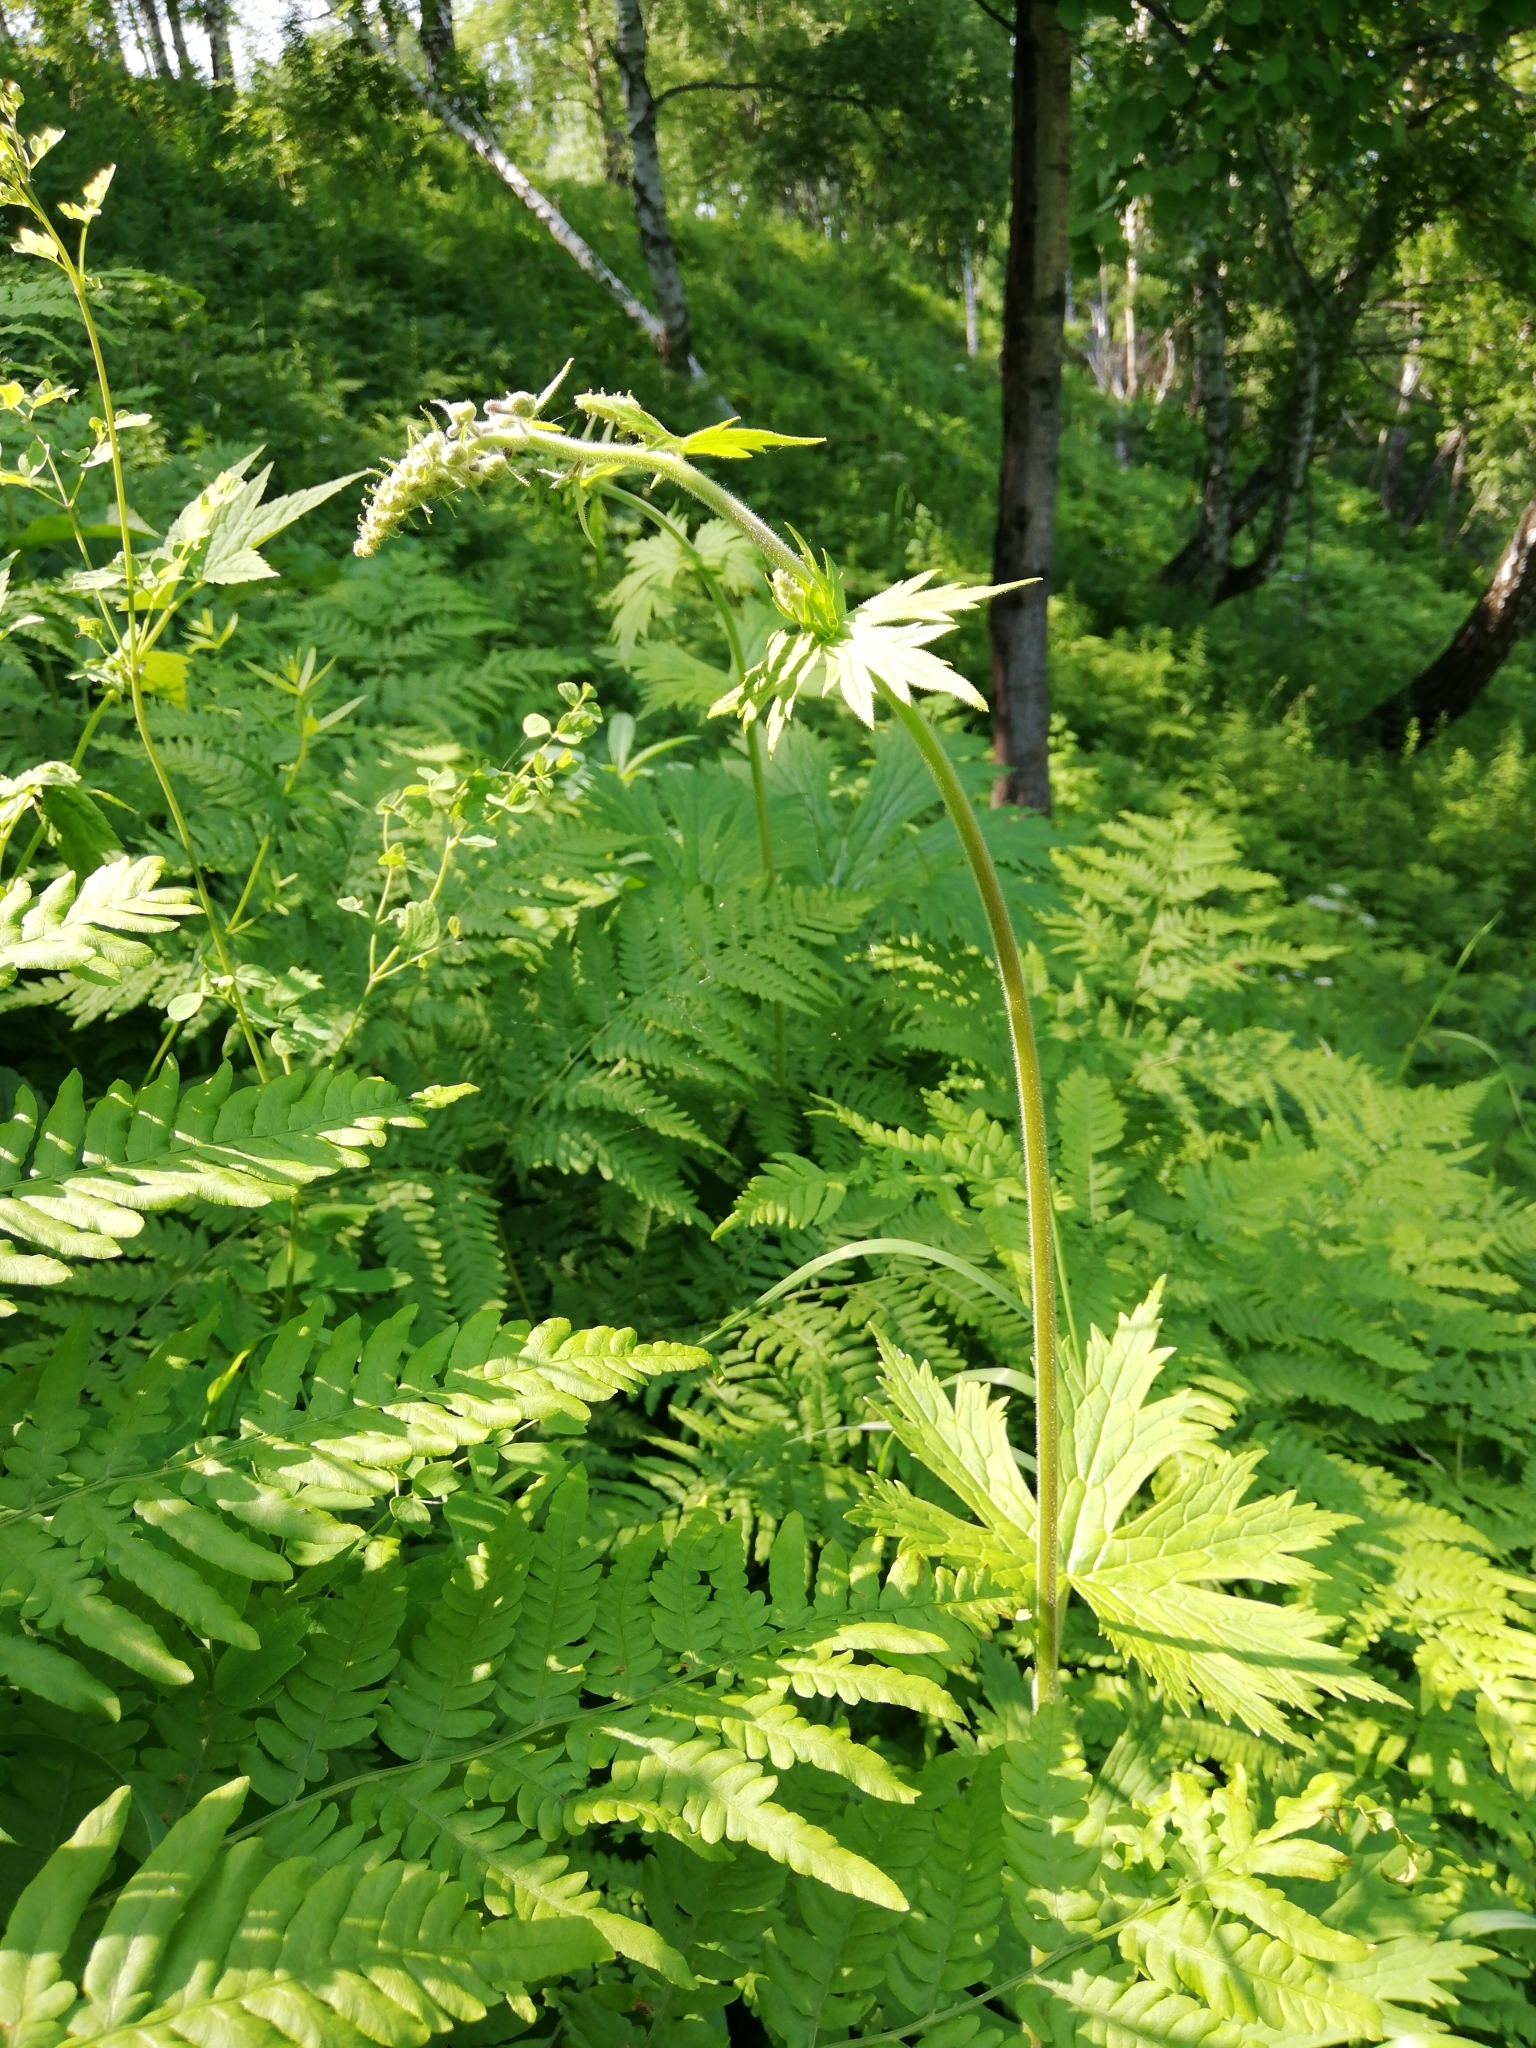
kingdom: Plantae
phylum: Tracheophyta
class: Magnoliopsida
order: Ranunculales
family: Ranunculaceae
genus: Aconitum
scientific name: Aconitum septentrionale
